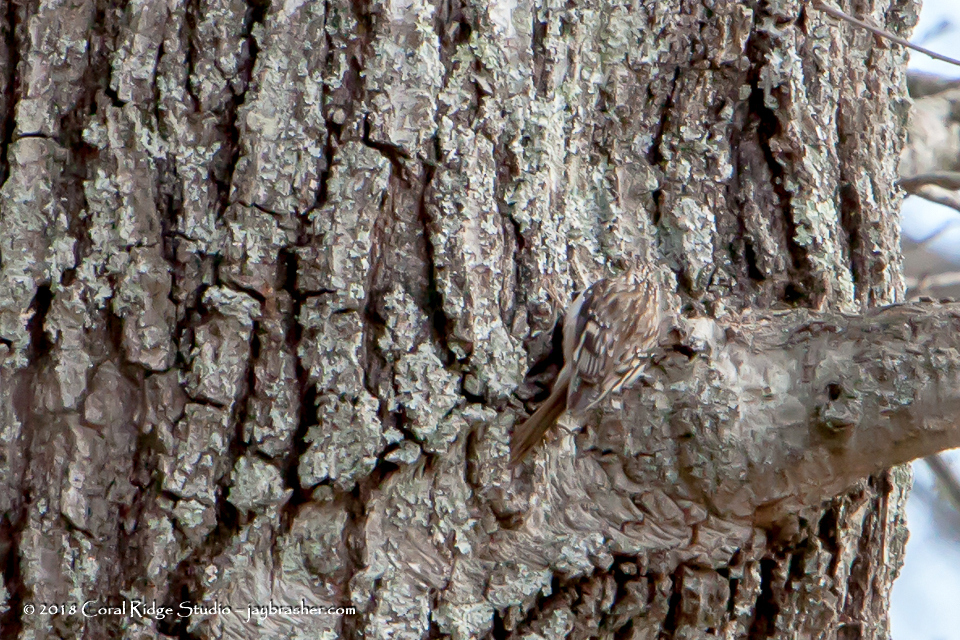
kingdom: Animalia
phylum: Chordata
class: Aves
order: Passeriformes
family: Certhiidae
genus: Certhia
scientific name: Certhia americana
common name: Brown creeper
